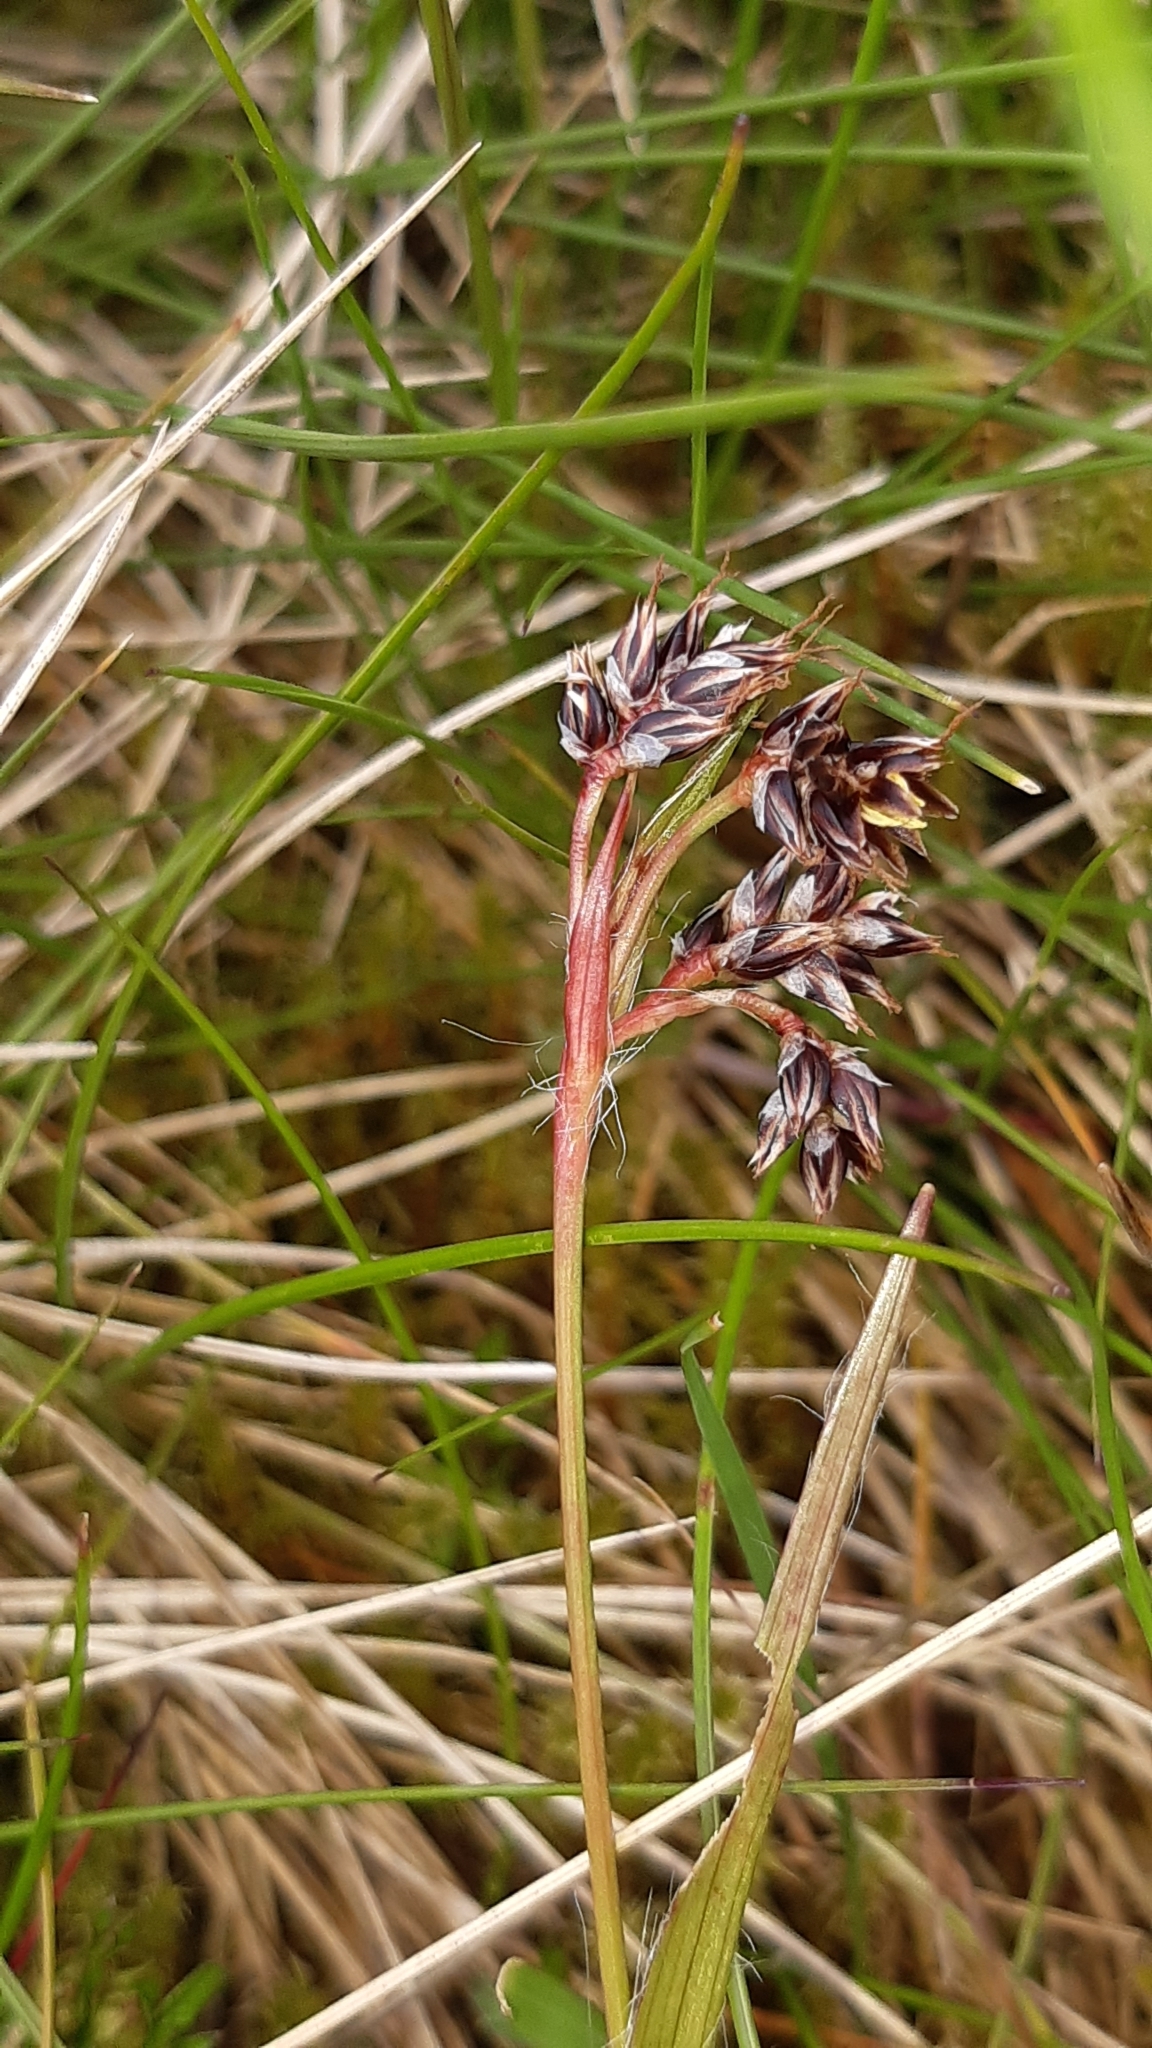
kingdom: Plantae
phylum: Tracheophyta
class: Liliopsida
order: Poales
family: Juncaceae
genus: Luzula
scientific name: Luzula campestris
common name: Field wood-rush
